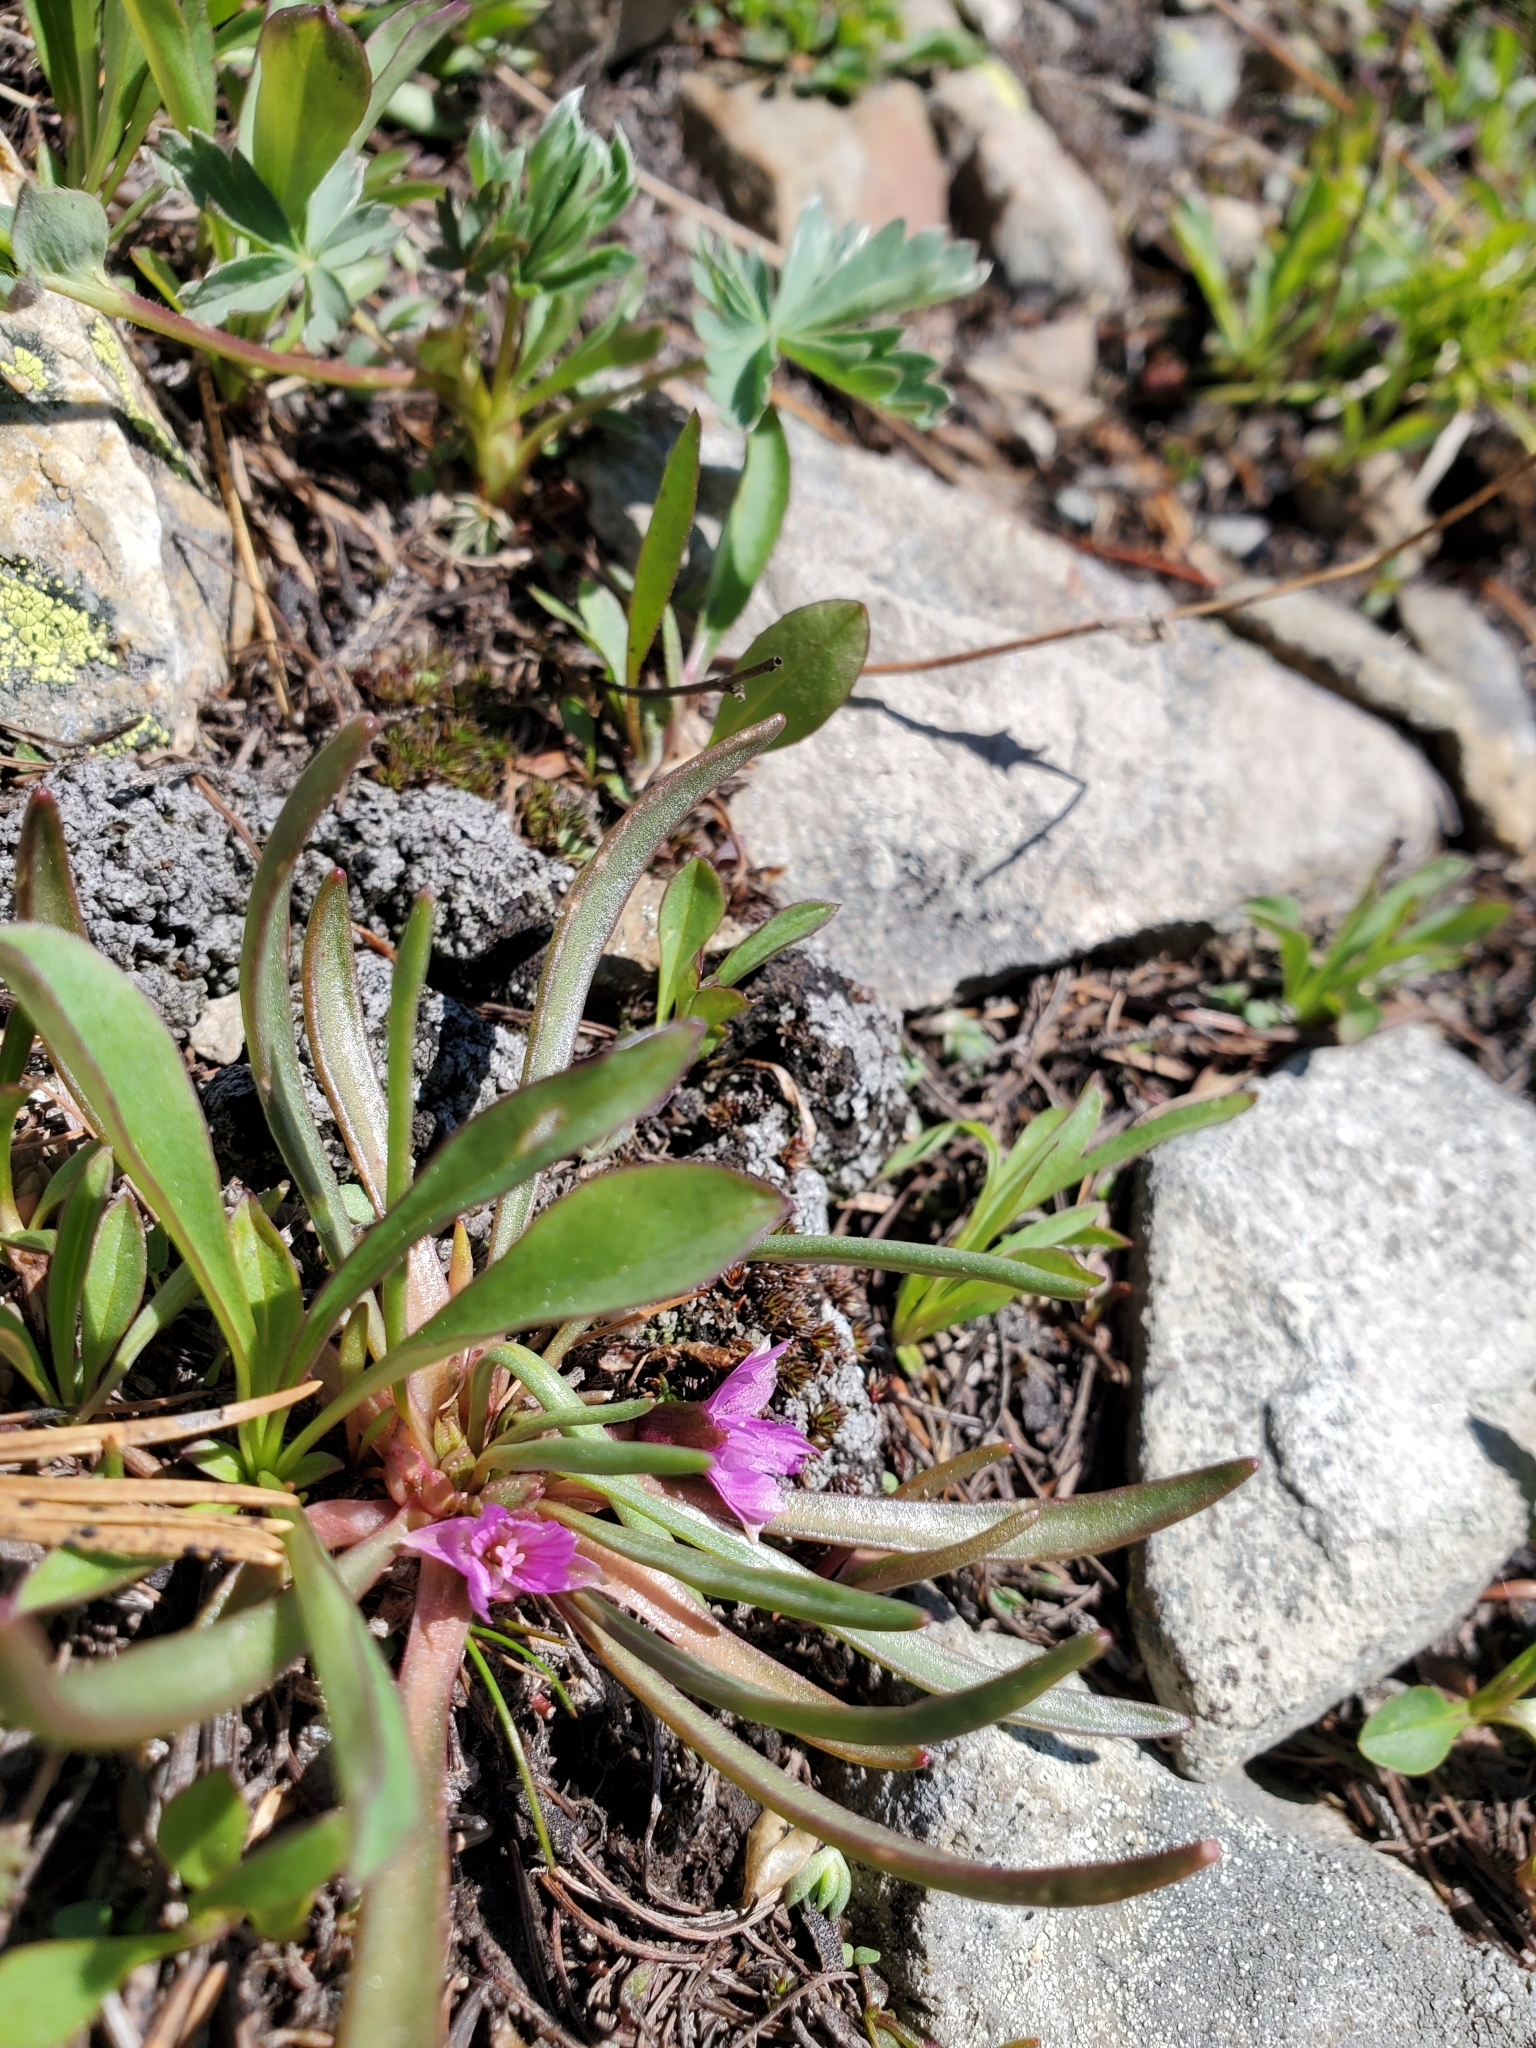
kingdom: Plantae
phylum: Tracheophyta
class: Magnoliopsida
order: Caryophyllales
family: Montiaceae
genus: Lewisia
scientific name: Lewisia pygmaea
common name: Alpine bitterroot
